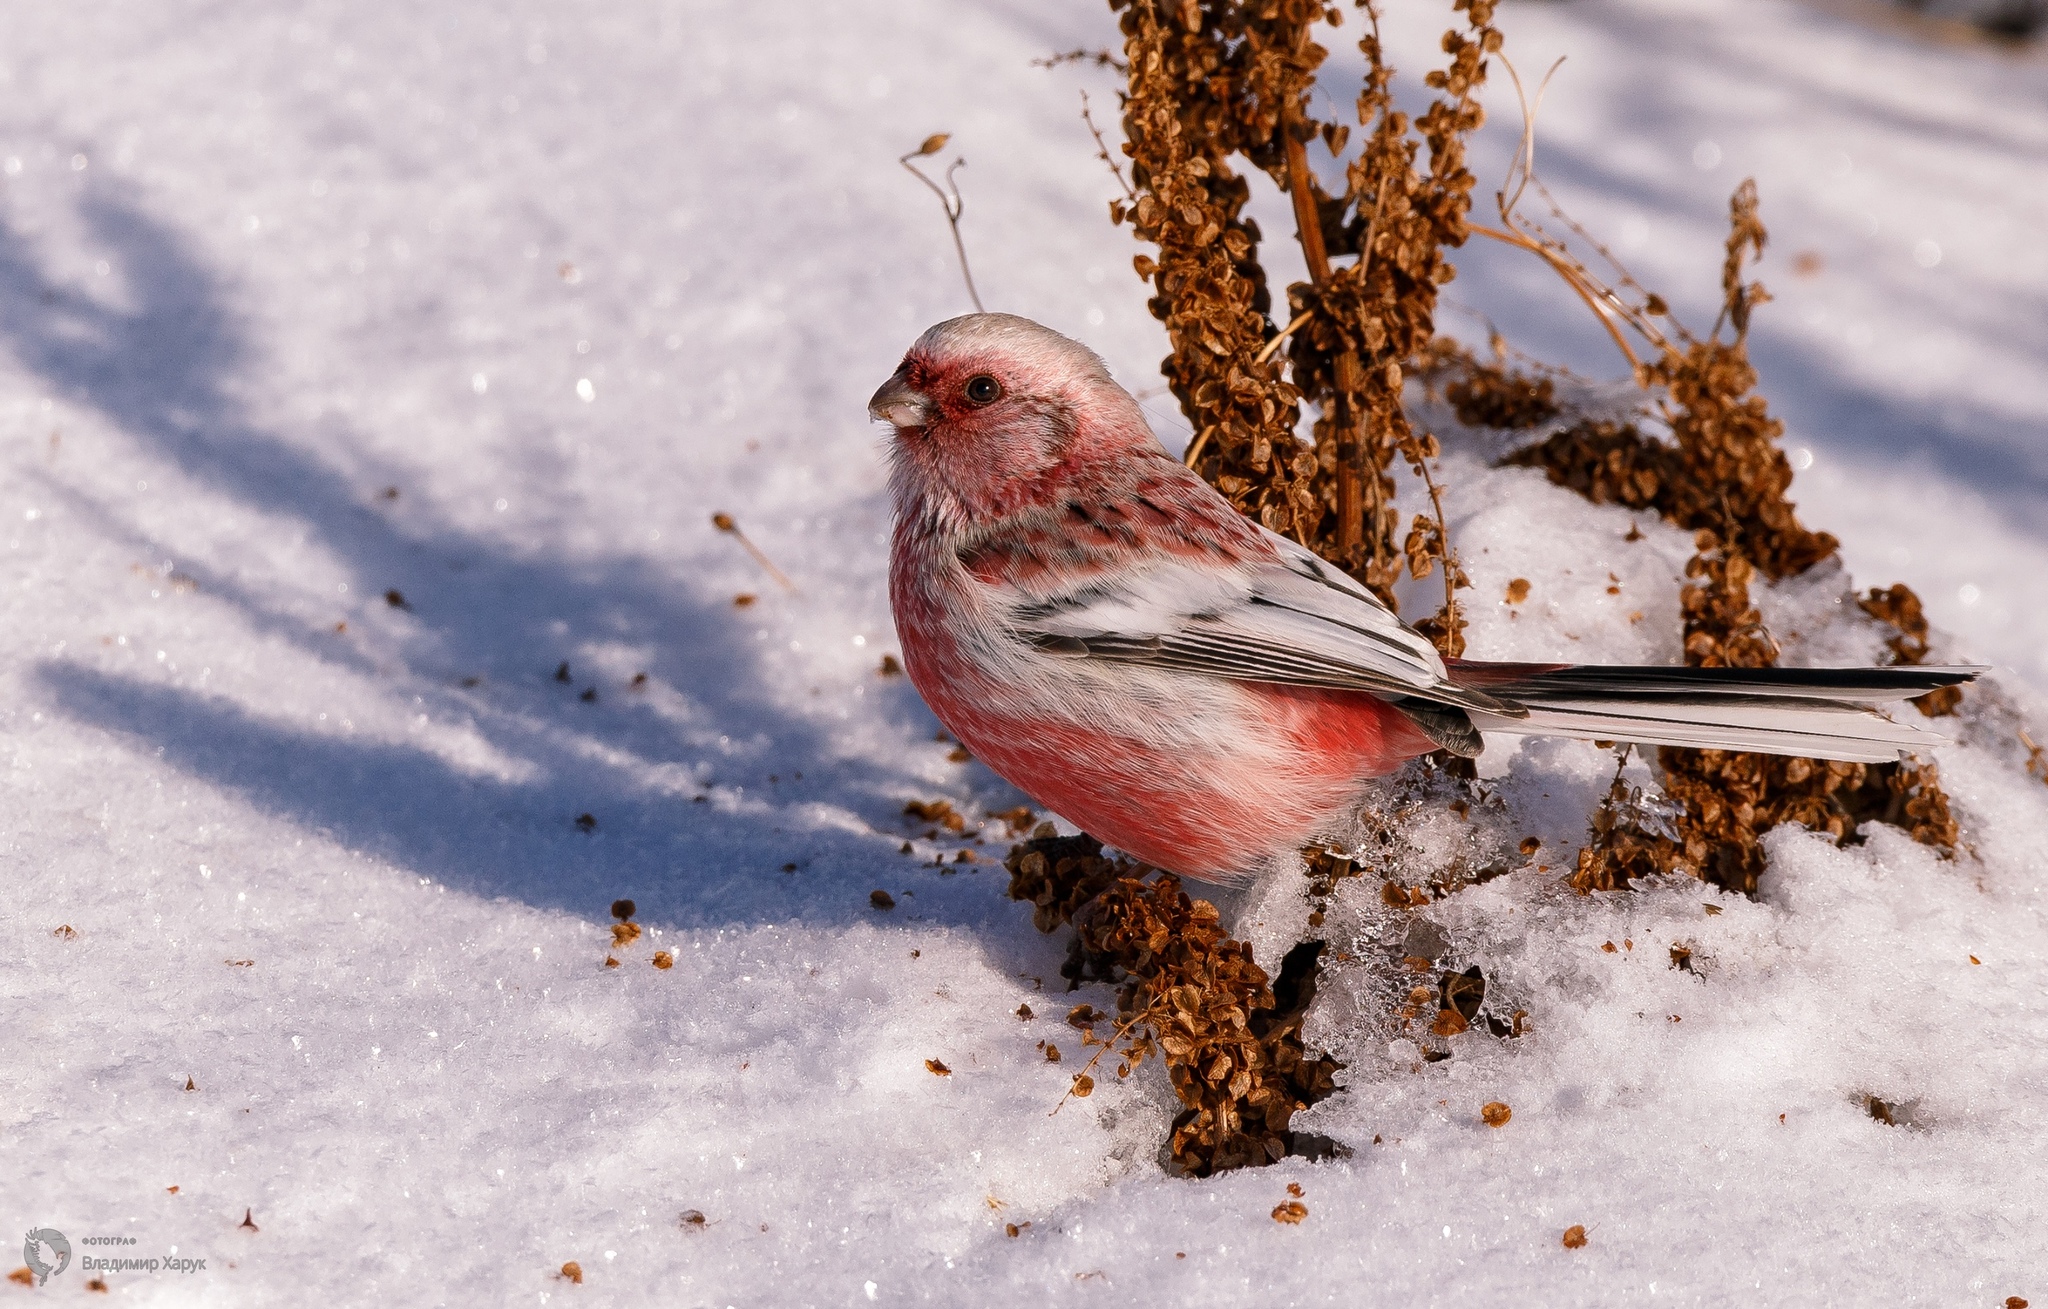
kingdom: Animalia
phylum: Chordata
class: Aves
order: Passeriformes
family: Fringillidae
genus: Carpodacus
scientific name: Carpodacus sibiricus
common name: Long-tailed rosefinch
